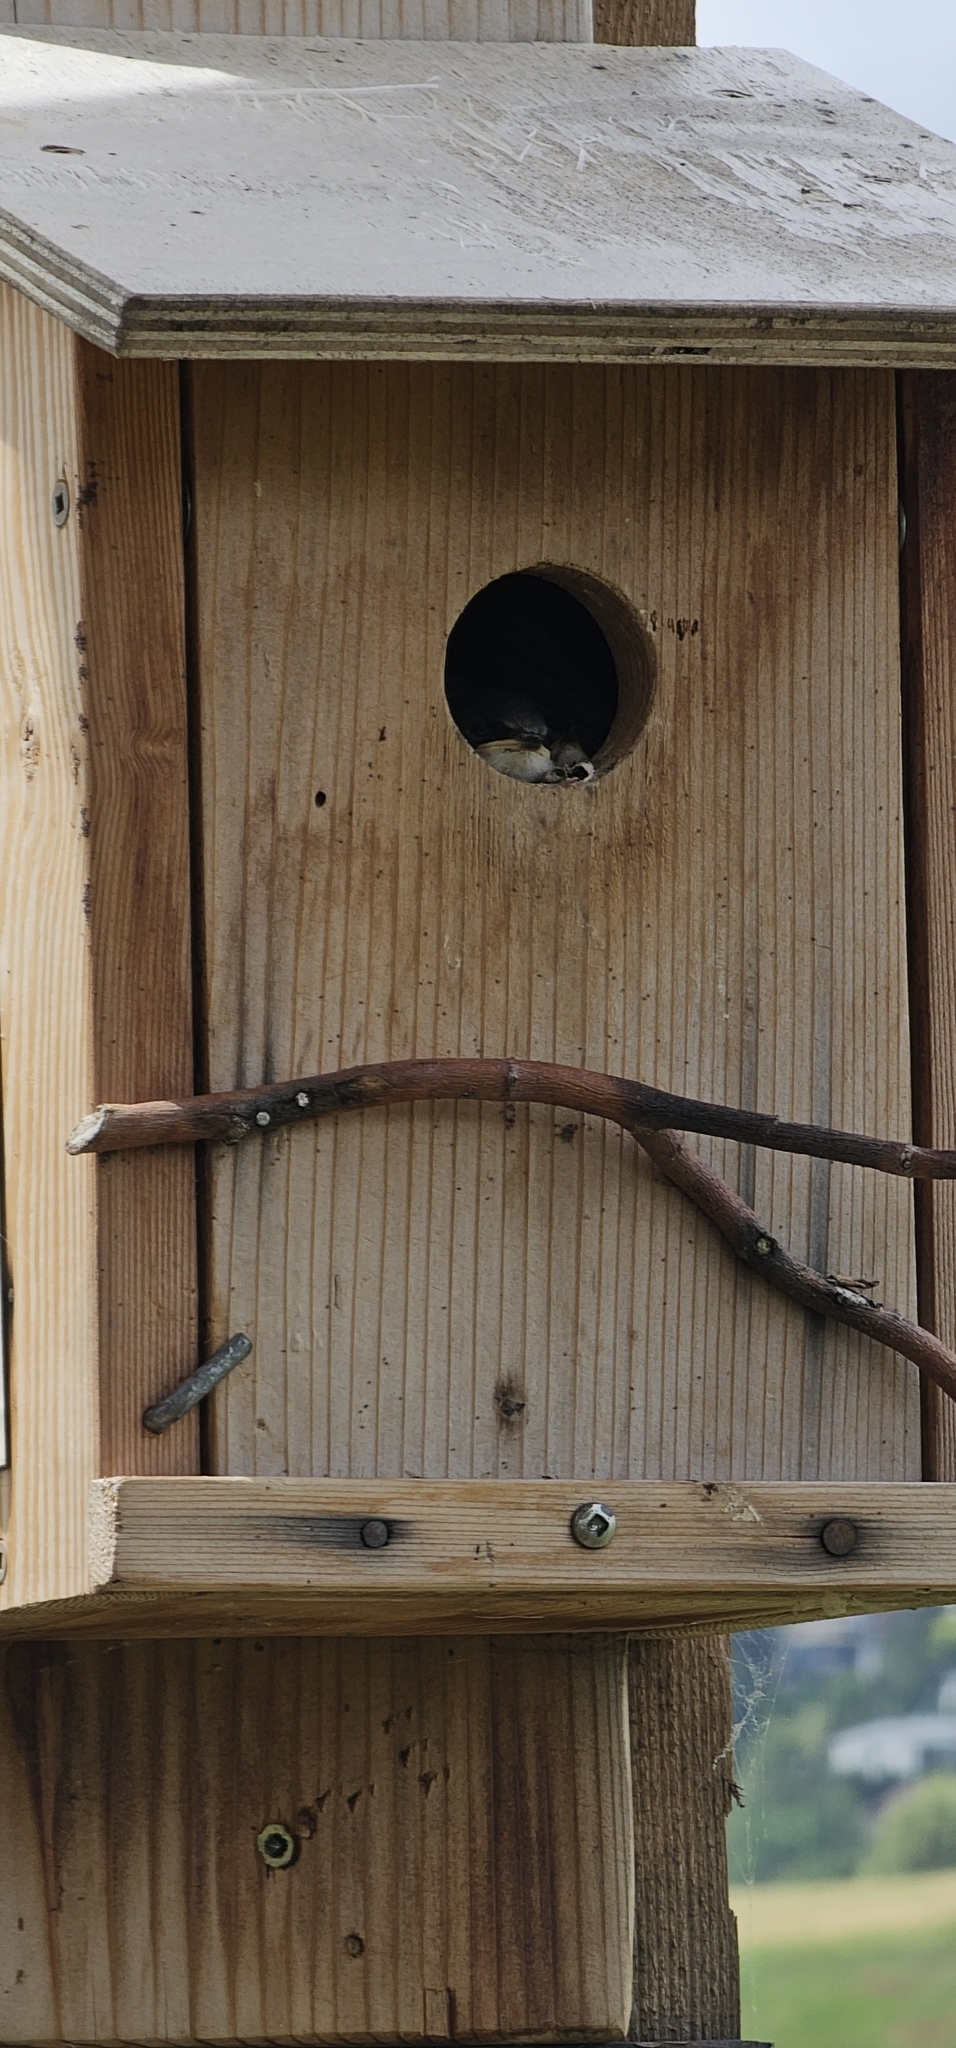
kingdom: Animalia
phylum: Chordata
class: Aves
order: Passeriformes
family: Hirundinidae
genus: Tachycineta
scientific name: Tachycineta bicolor
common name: Tree swallow
